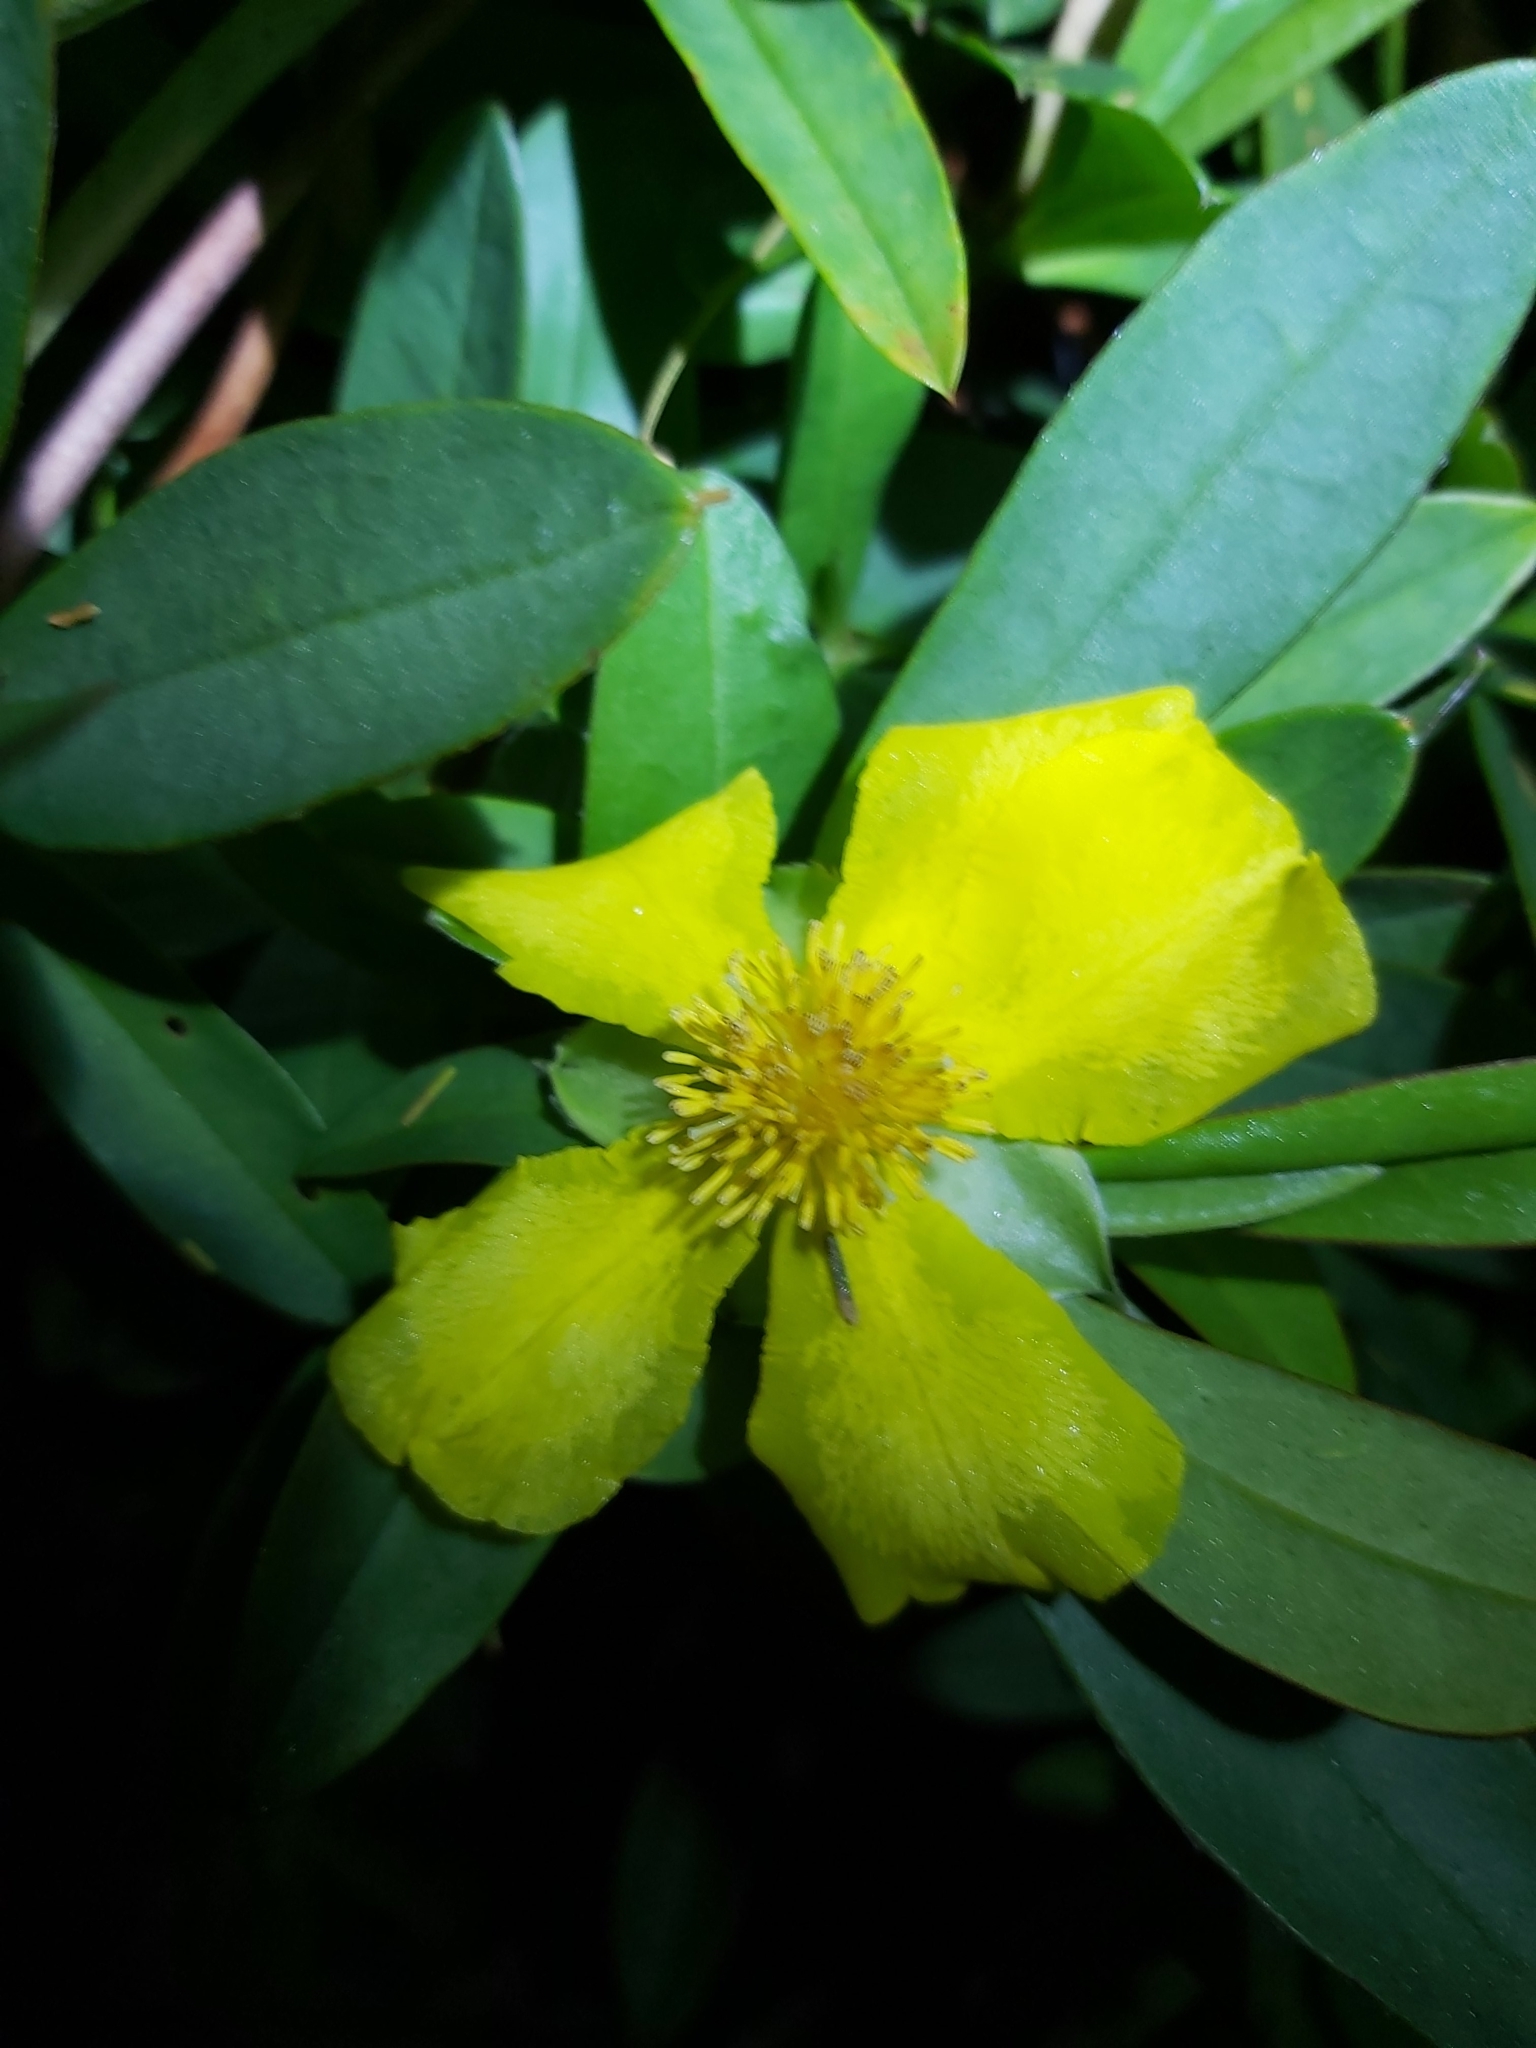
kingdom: Plantae
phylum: Tracheophyta
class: Magnoliopsida
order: Dilleniales
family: Dilleniaceae
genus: Hibbertia
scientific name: Hibbertia scandens
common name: Climbing guinea-flower
